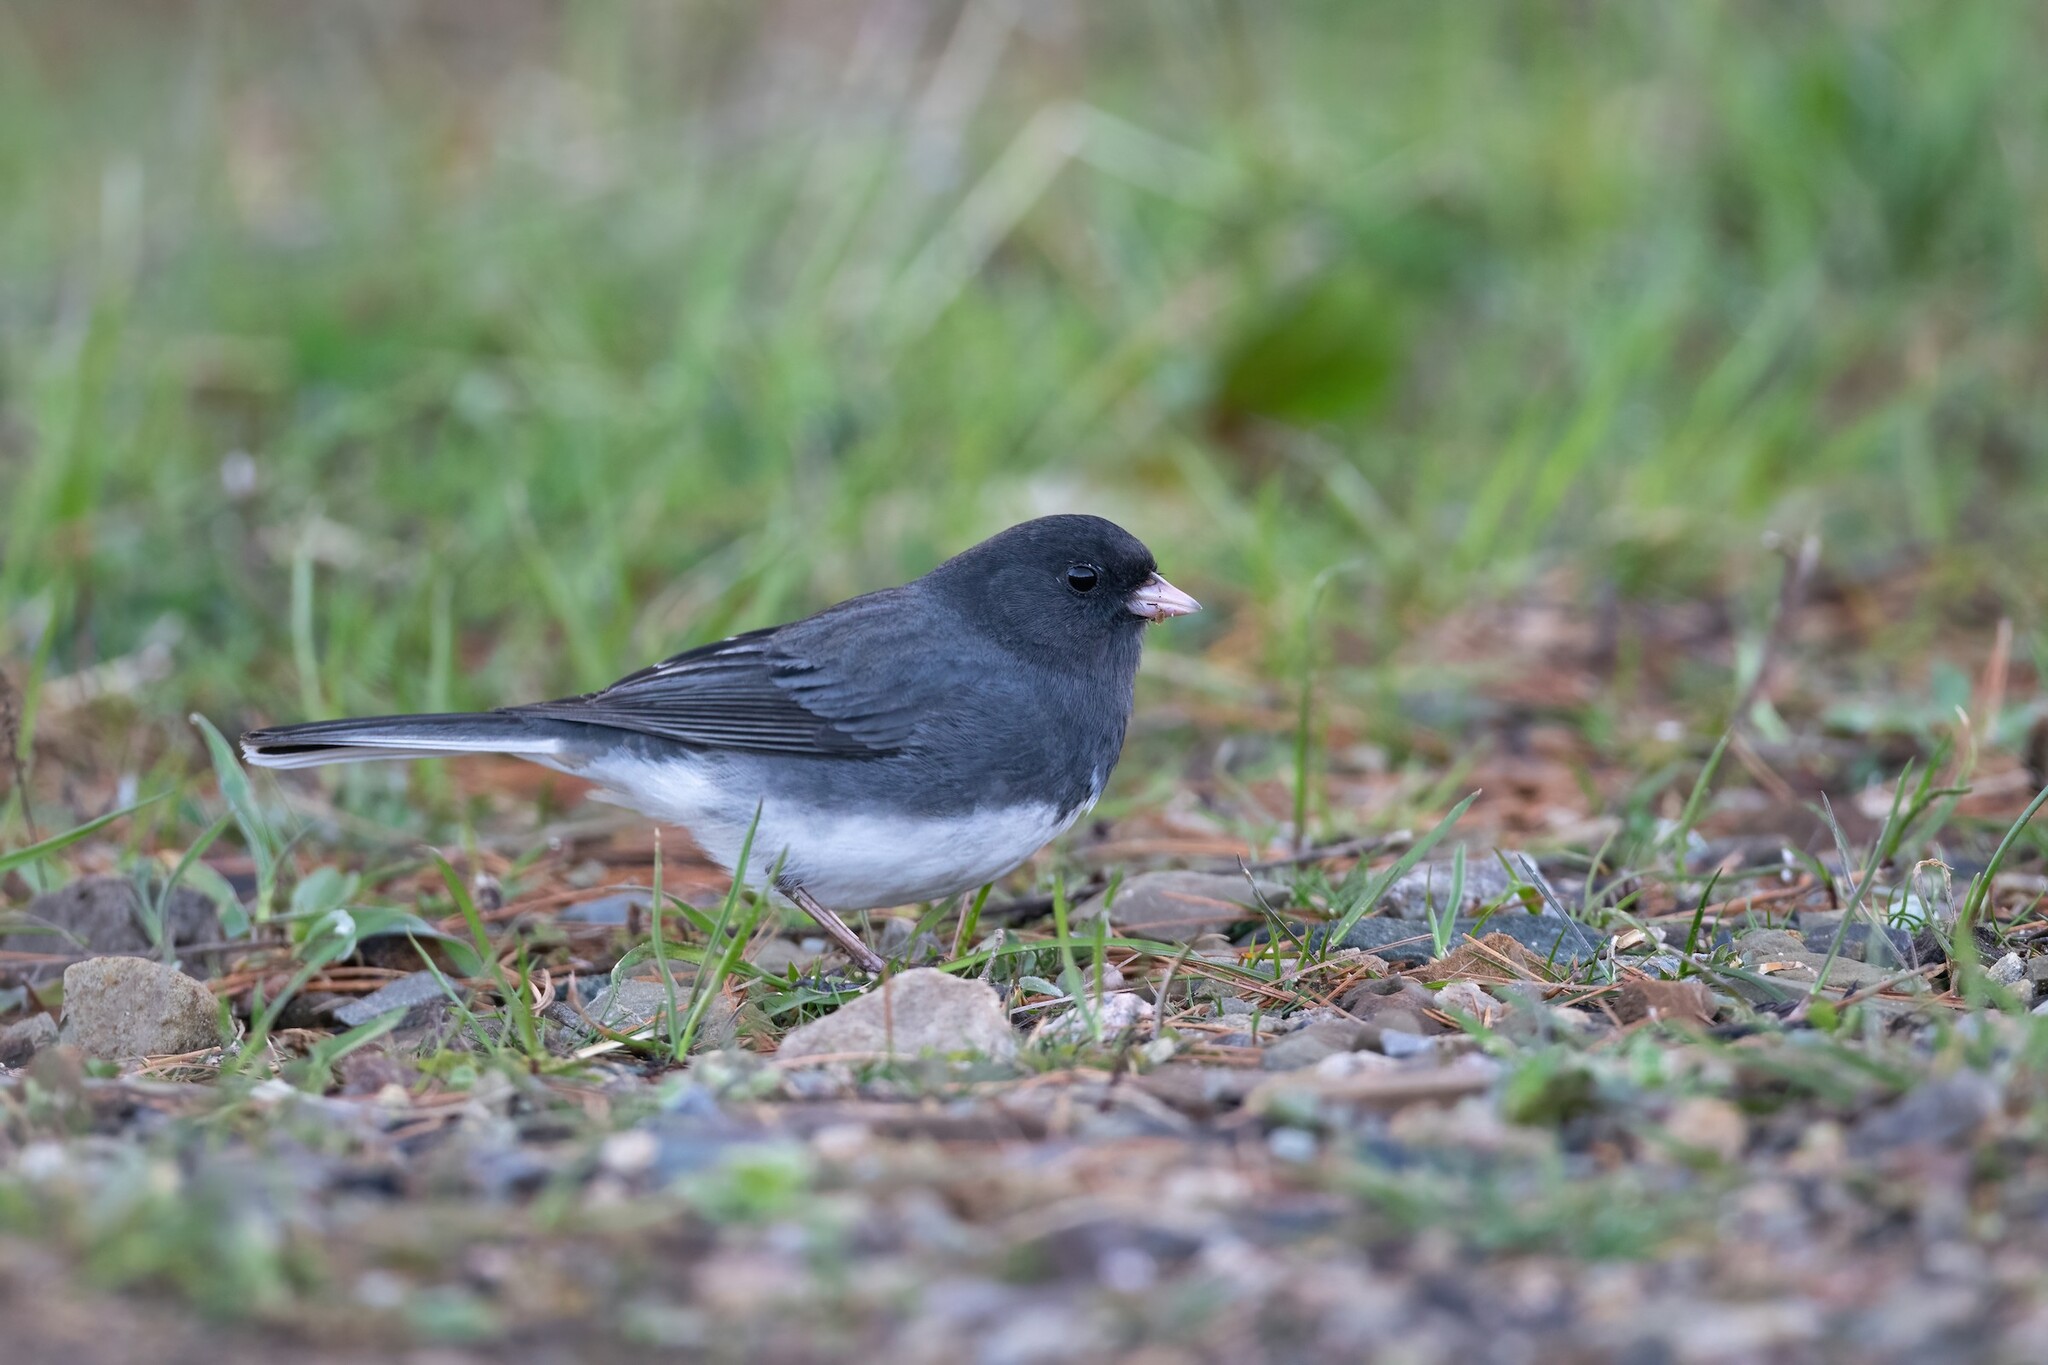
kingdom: Animalia
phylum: Chordata
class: Aves
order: Passeriformes
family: Passerellidae
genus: Junco
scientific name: Junco hyemalis
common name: Dark-eyed junco
